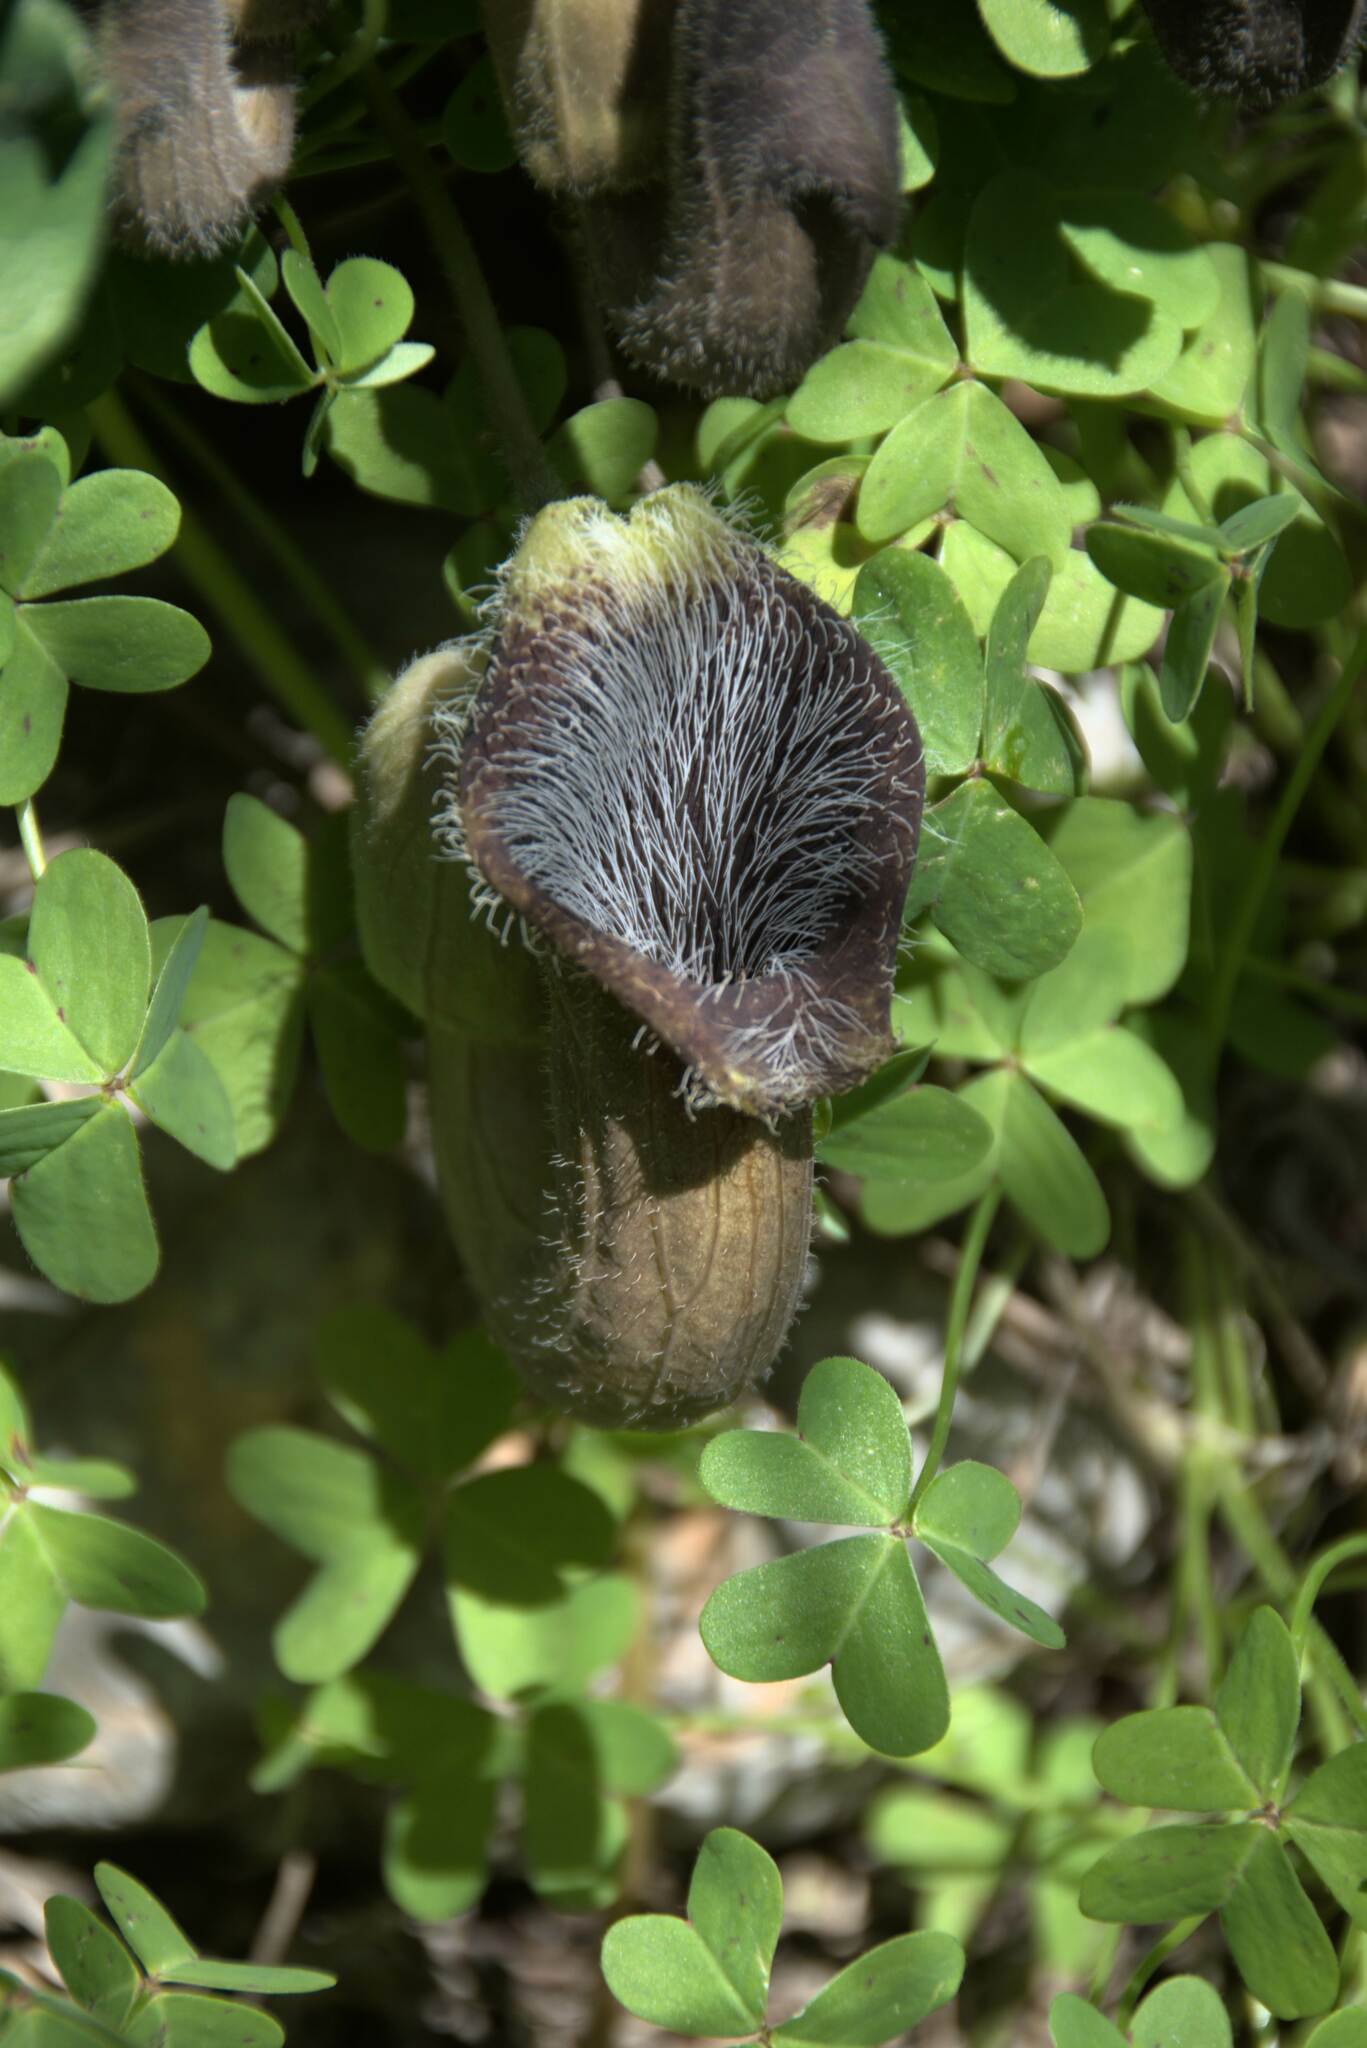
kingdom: Plantae
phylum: Tracheophyta
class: Magnoliopsida
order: Piperales
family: Aristolochiaceae
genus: Aristolochia
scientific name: Aristolochia cretica
